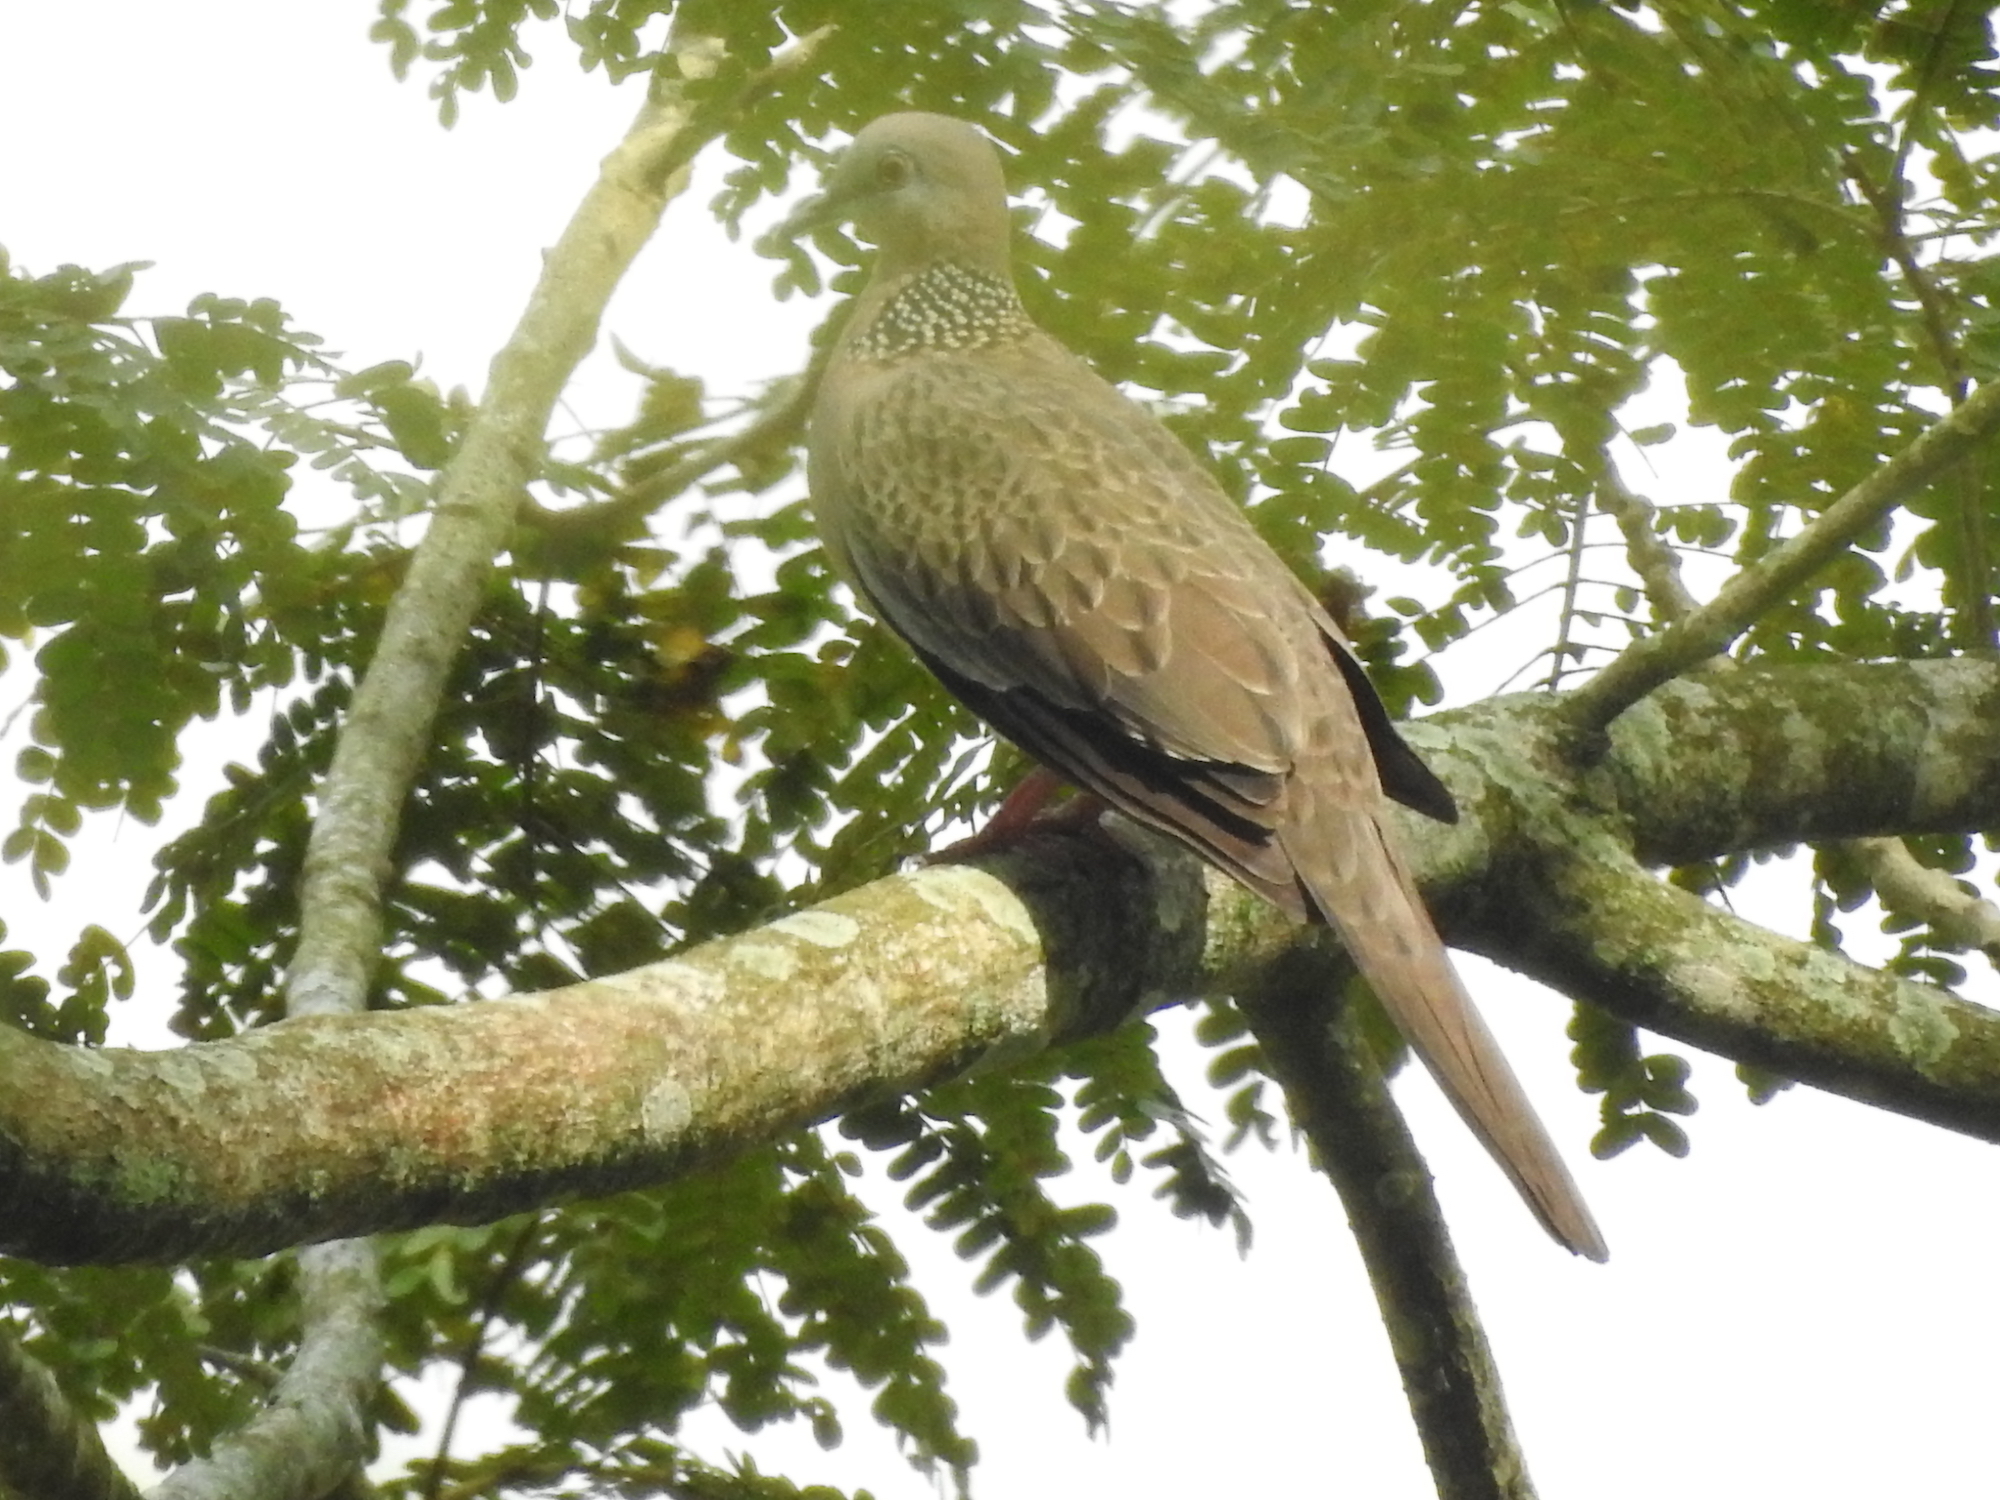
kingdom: Animalia
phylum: Chordata
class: Aves
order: Columbiformes
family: Columbidae
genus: Spilopelia
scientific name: Spilopelia chinensis
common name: Spotted dove
